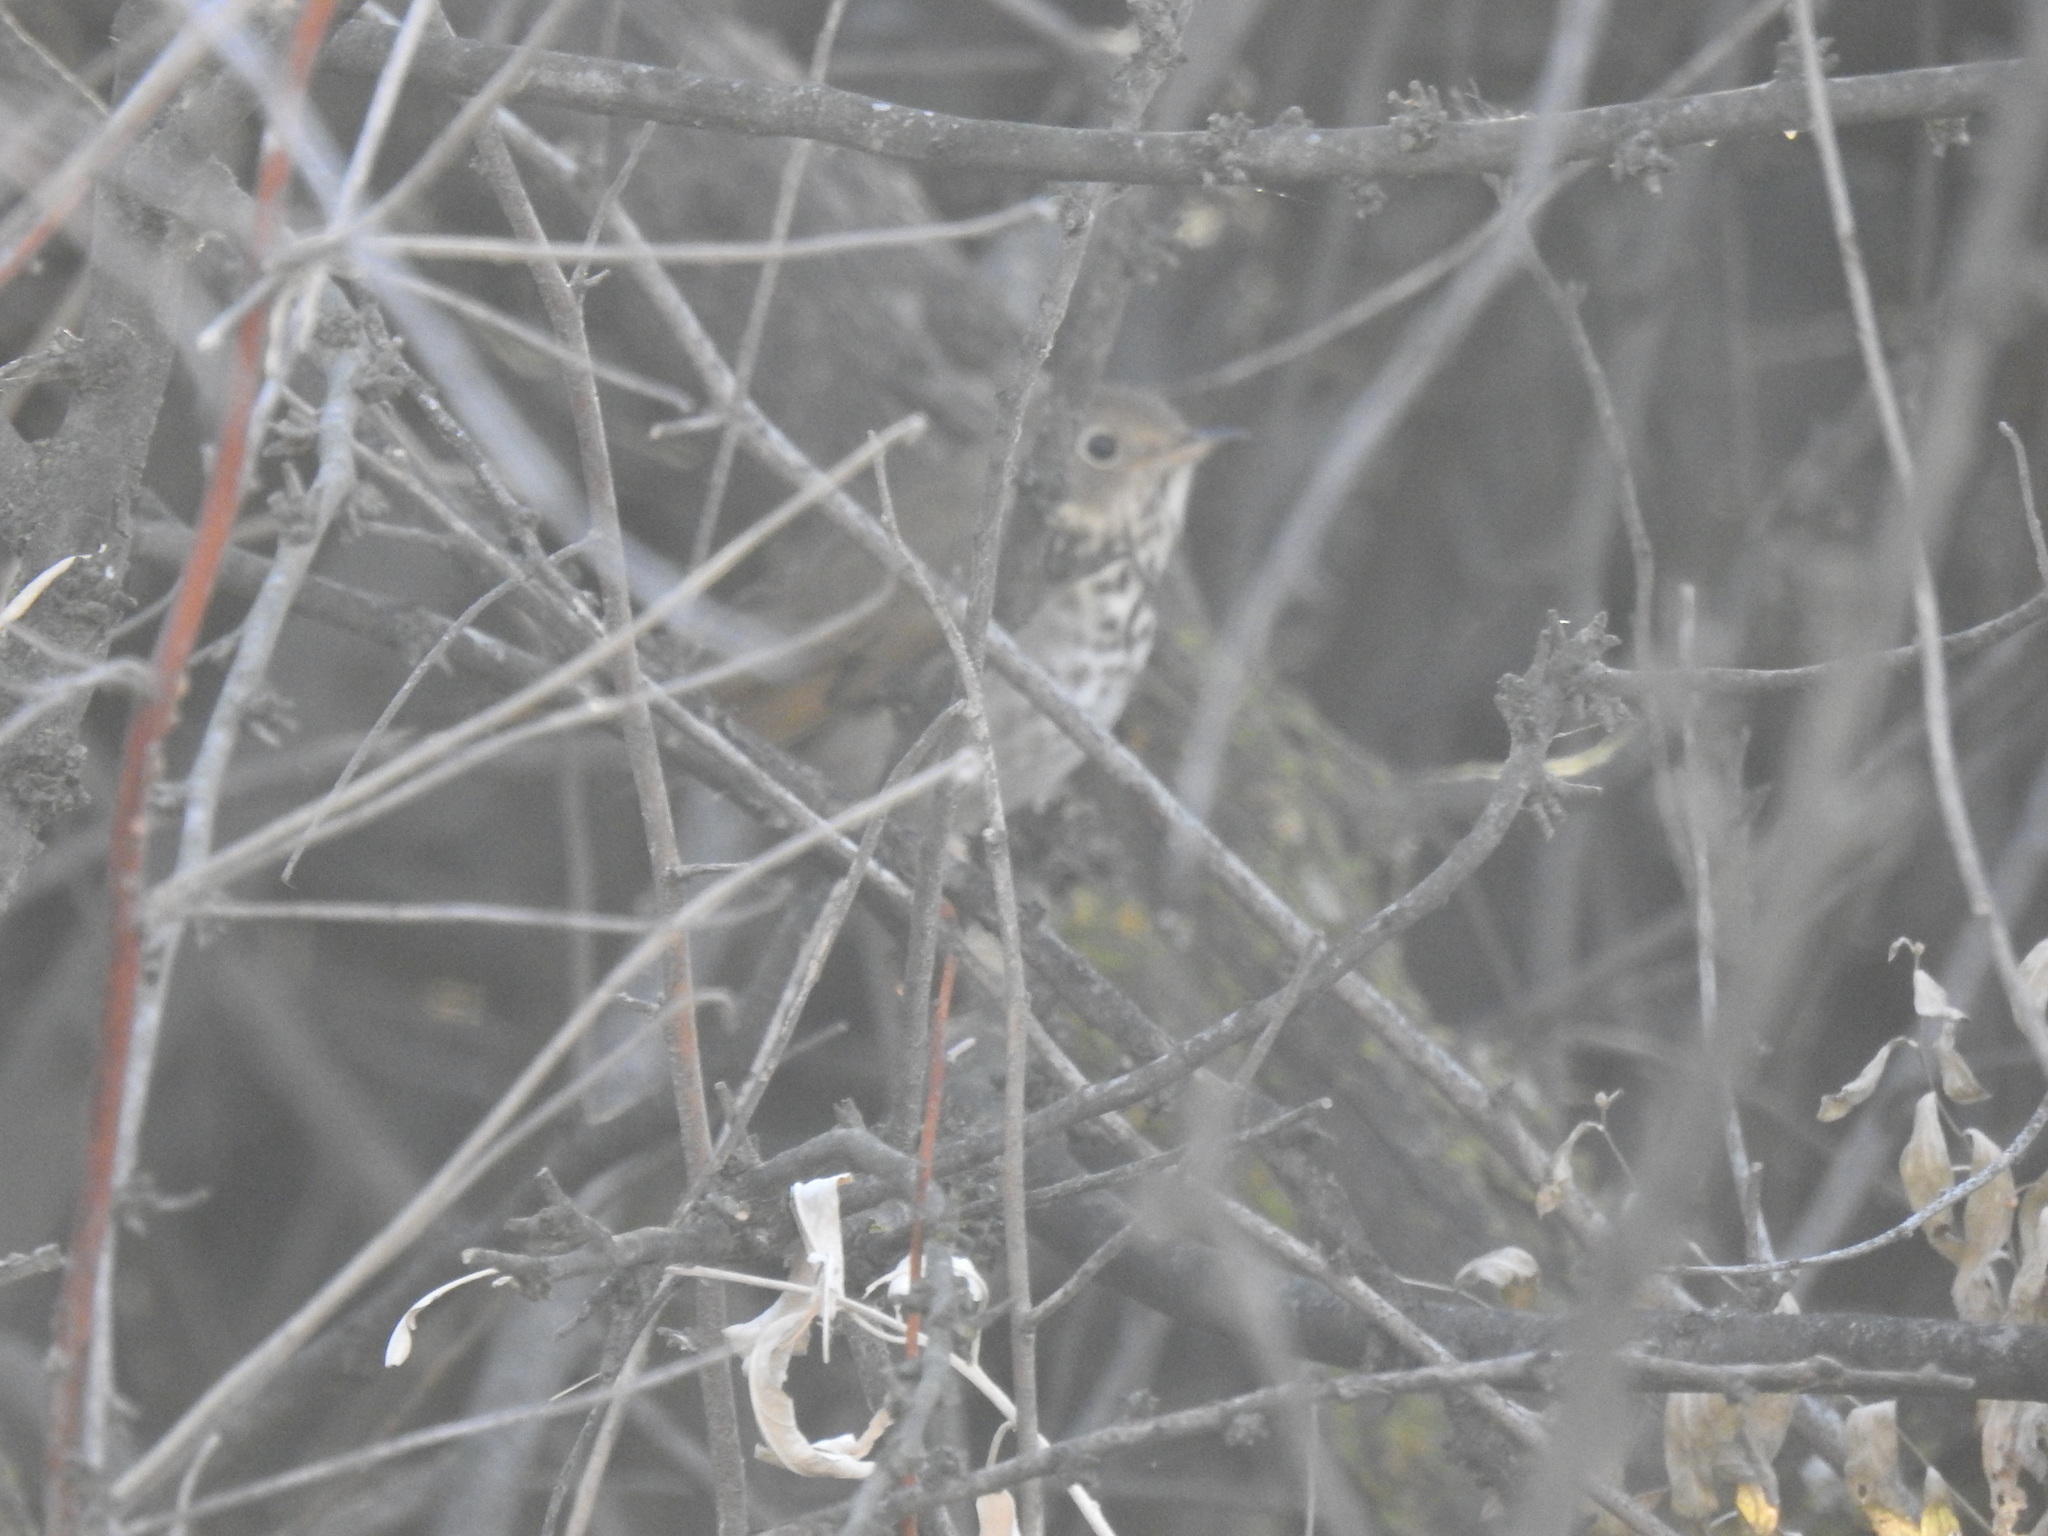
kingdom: Animalia
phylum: Chordata
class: Aves
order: Passeriformes
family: Turdidae
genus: Catharus
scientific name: Catharus guttatus
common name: Hermit thrush
